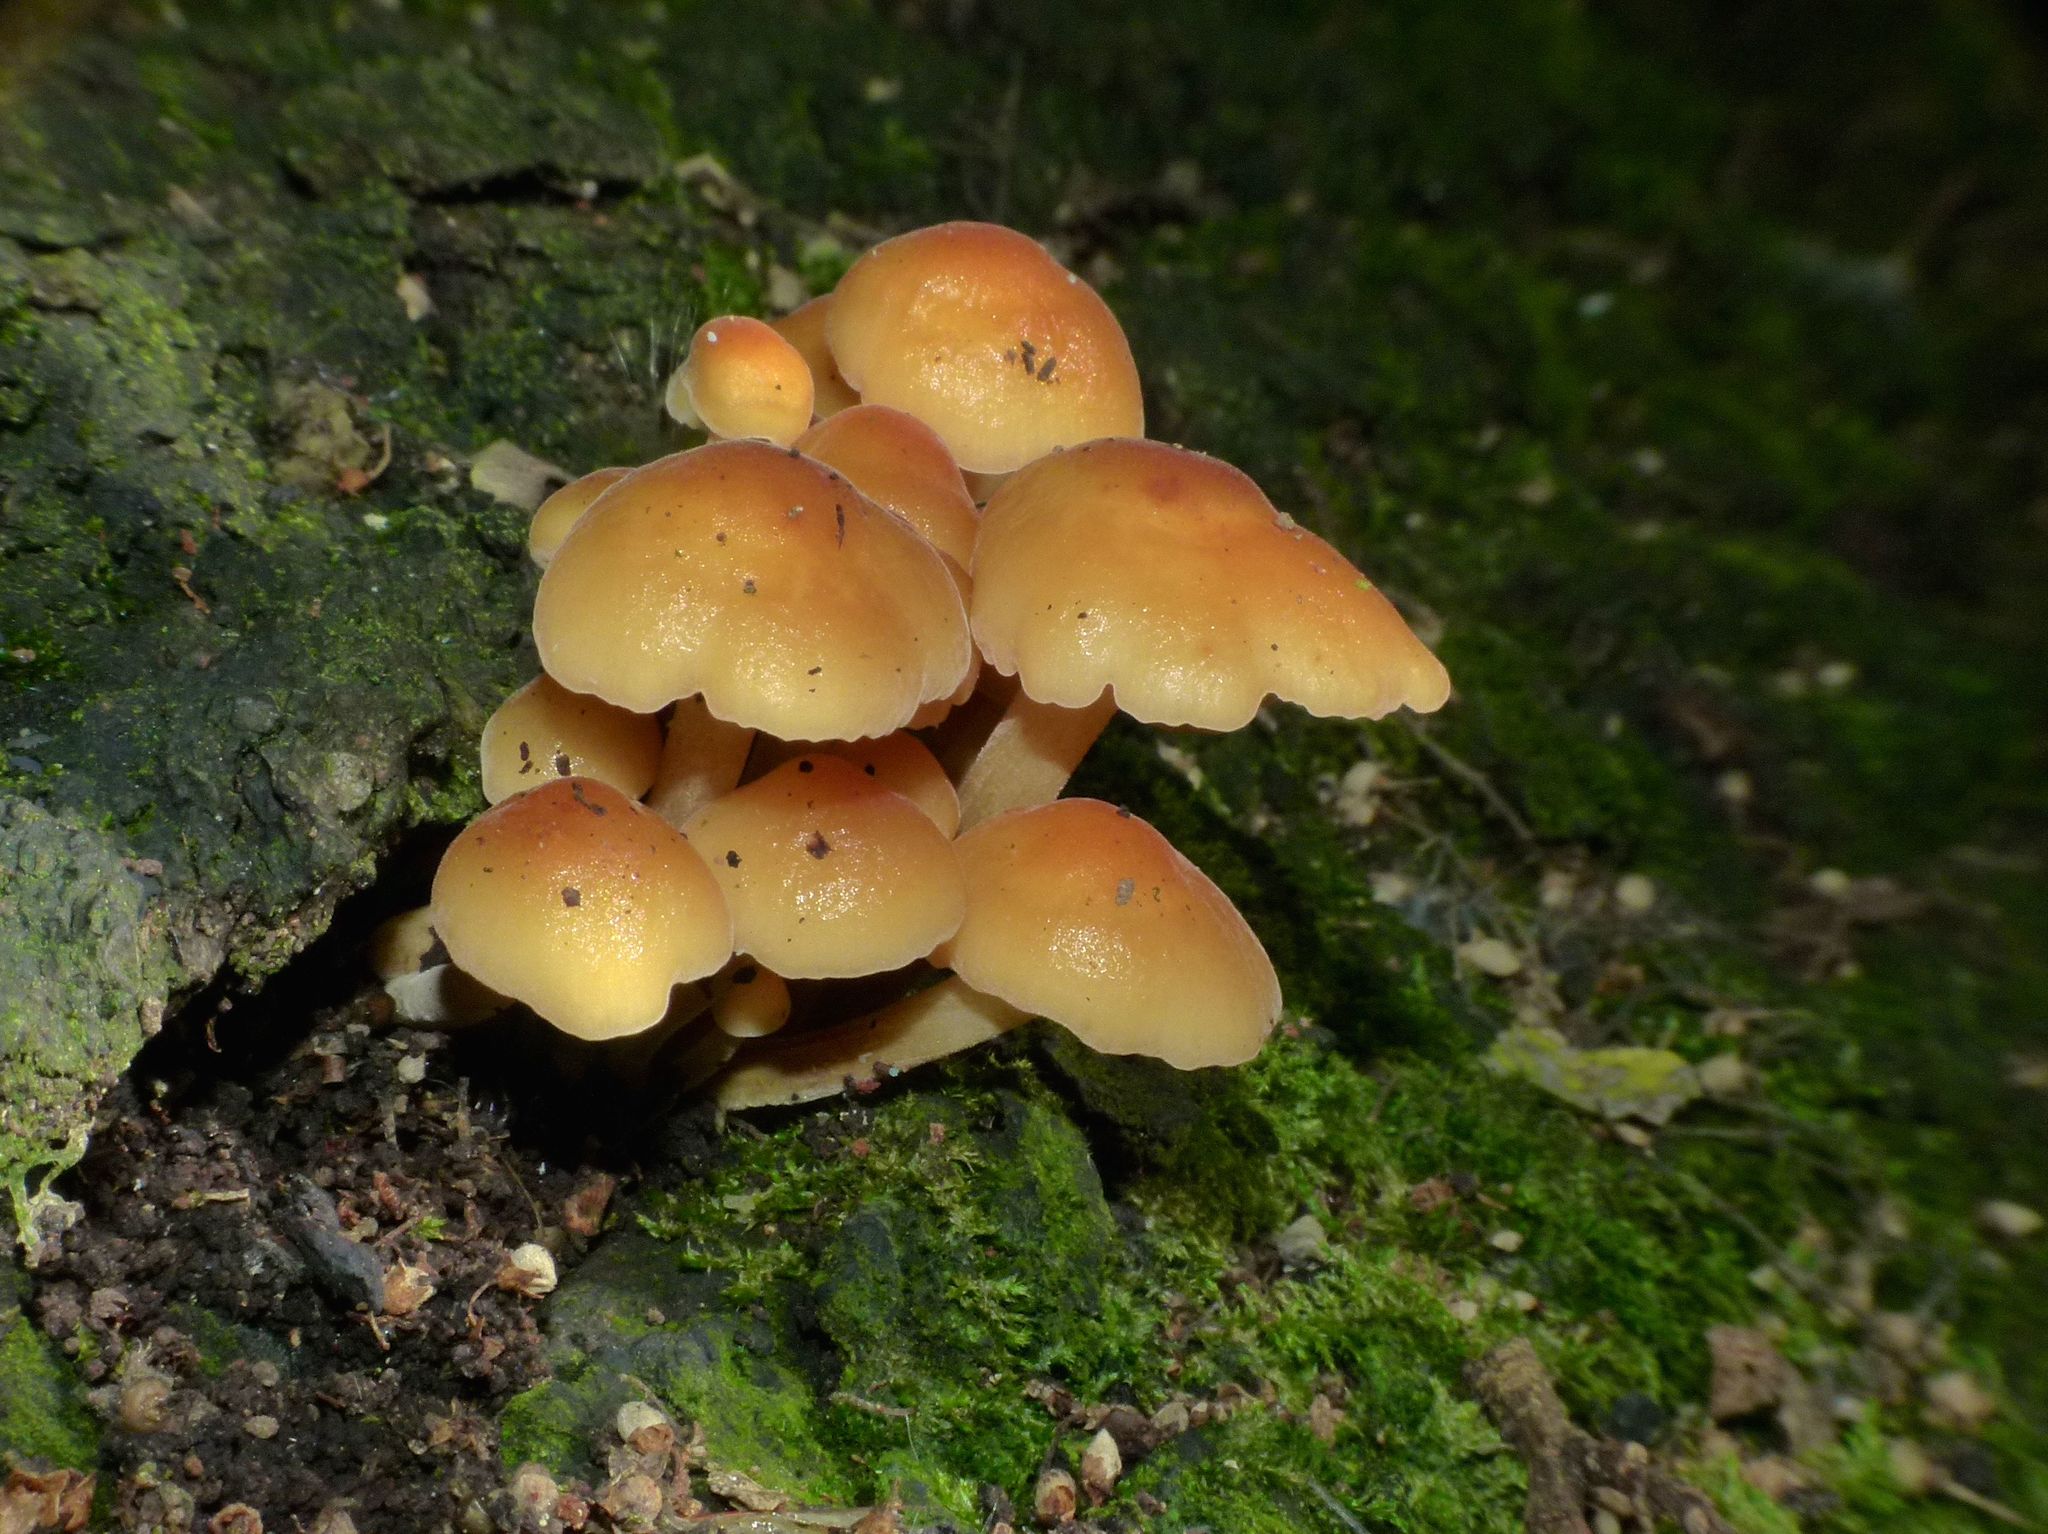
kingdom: Fungi
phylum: Basidiomycota
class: Agaricomycetes
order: Agaricales
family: Physalacriaceae
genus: Flammulina
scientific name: Flammulina velutipes
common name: Velvet shank
